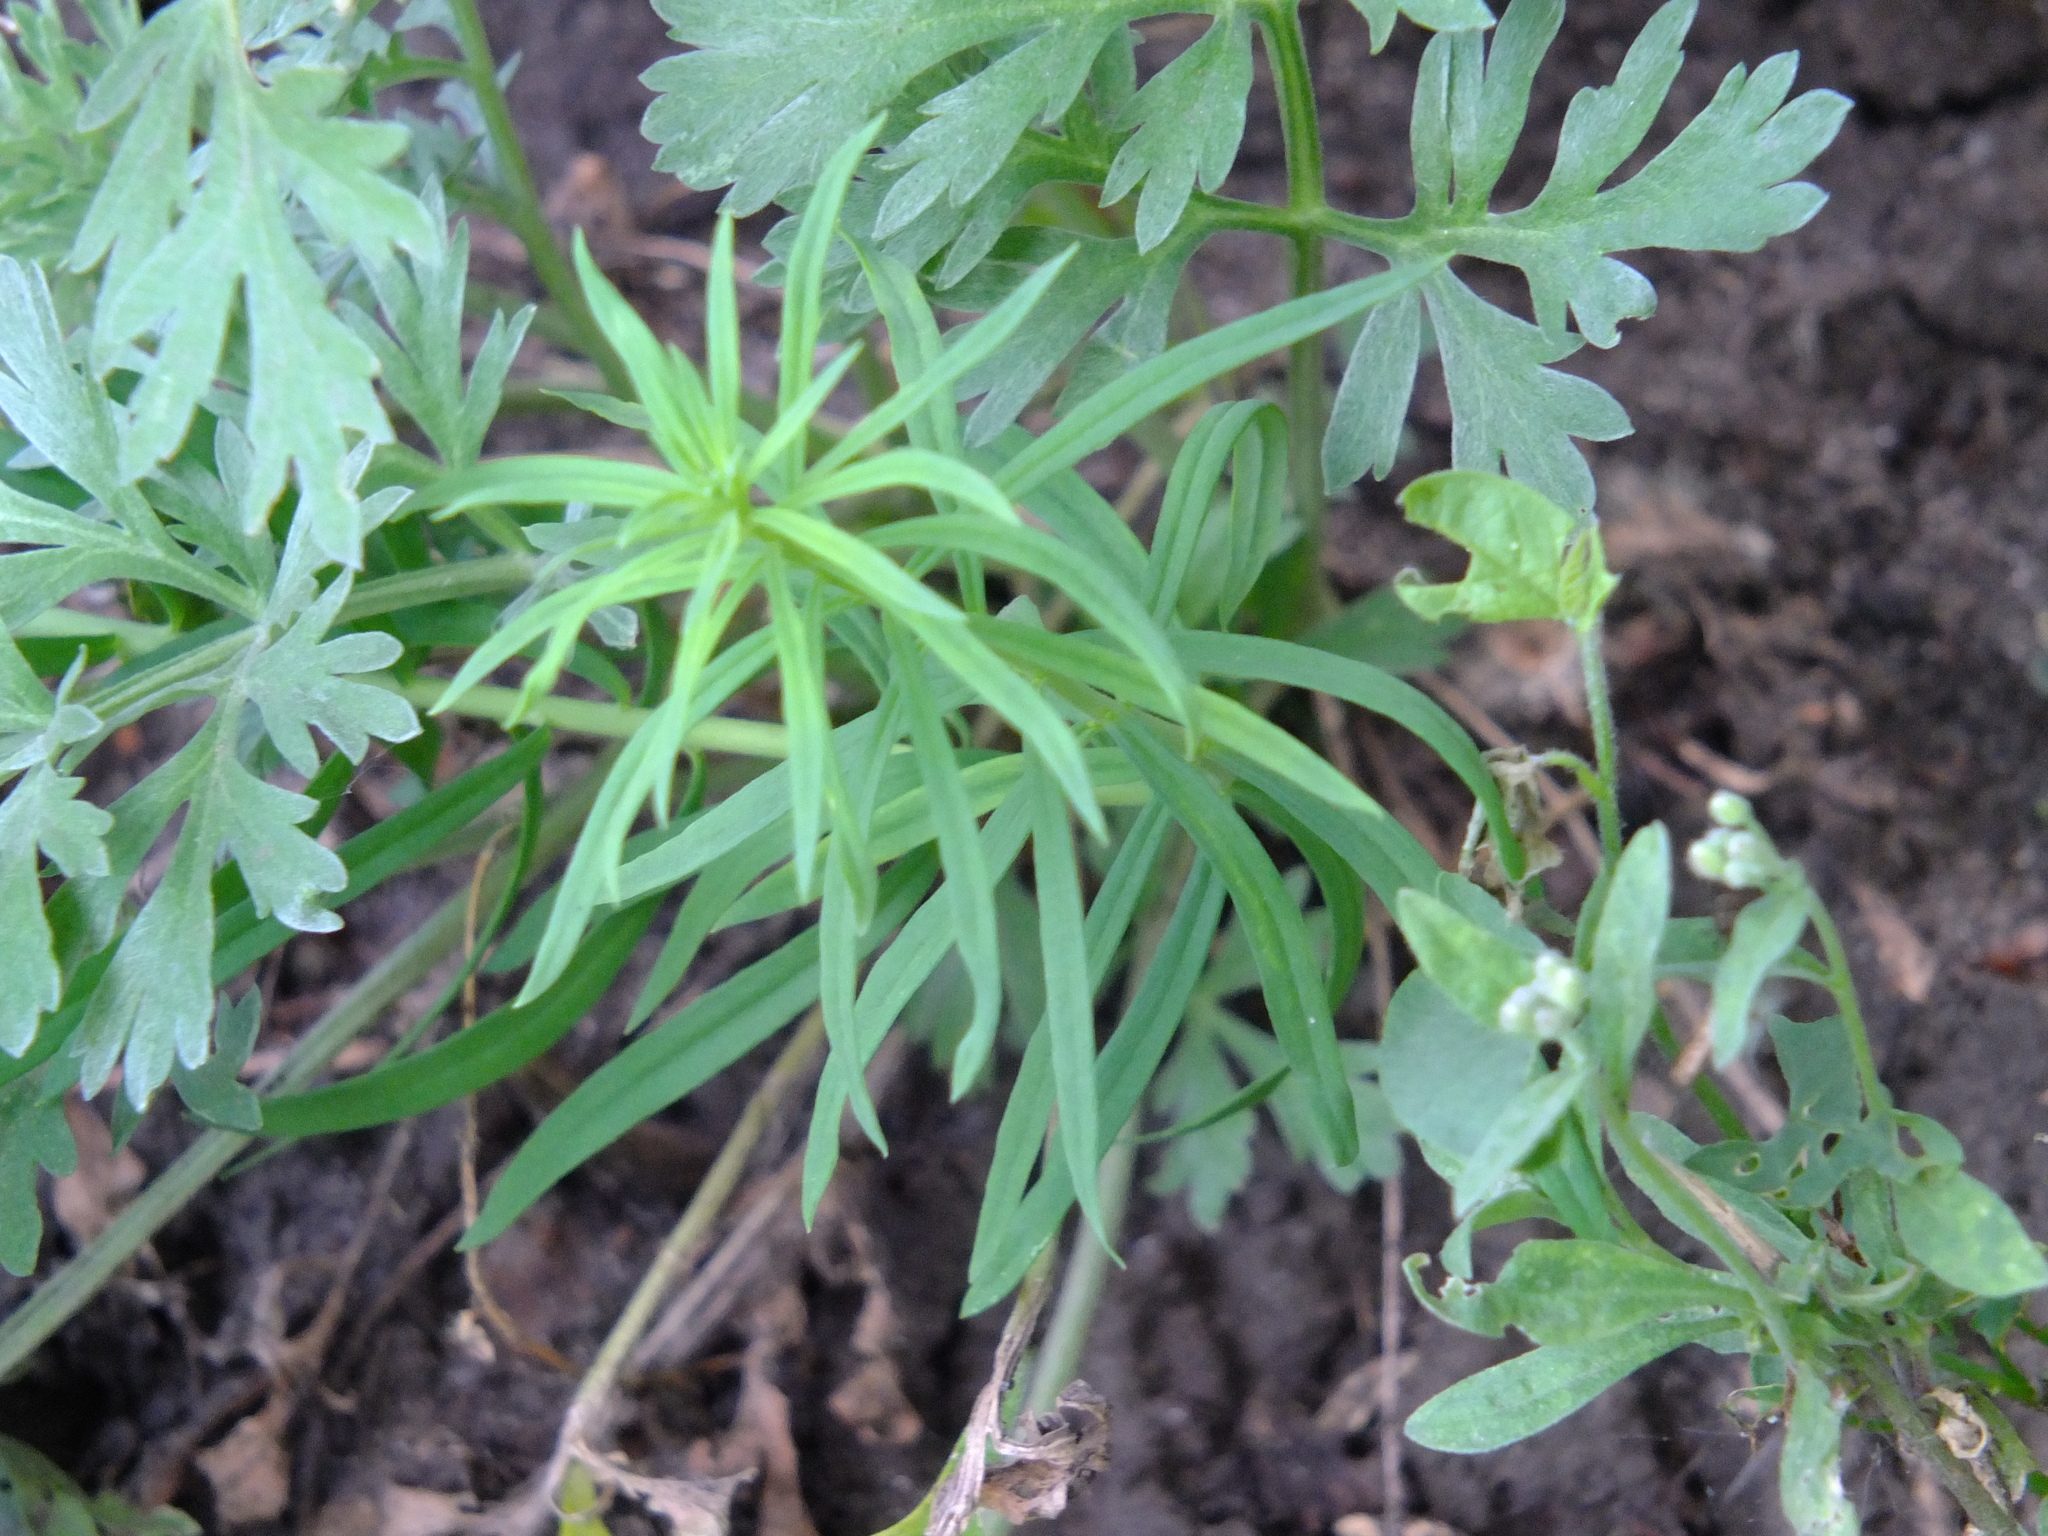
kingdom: Plantae
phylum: Tracheophyta
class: Magnoliopsida
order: Lamiales
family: Plantaginaceae
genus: Linaria
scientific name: Linaria vulgaris
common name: Butter and eggs
